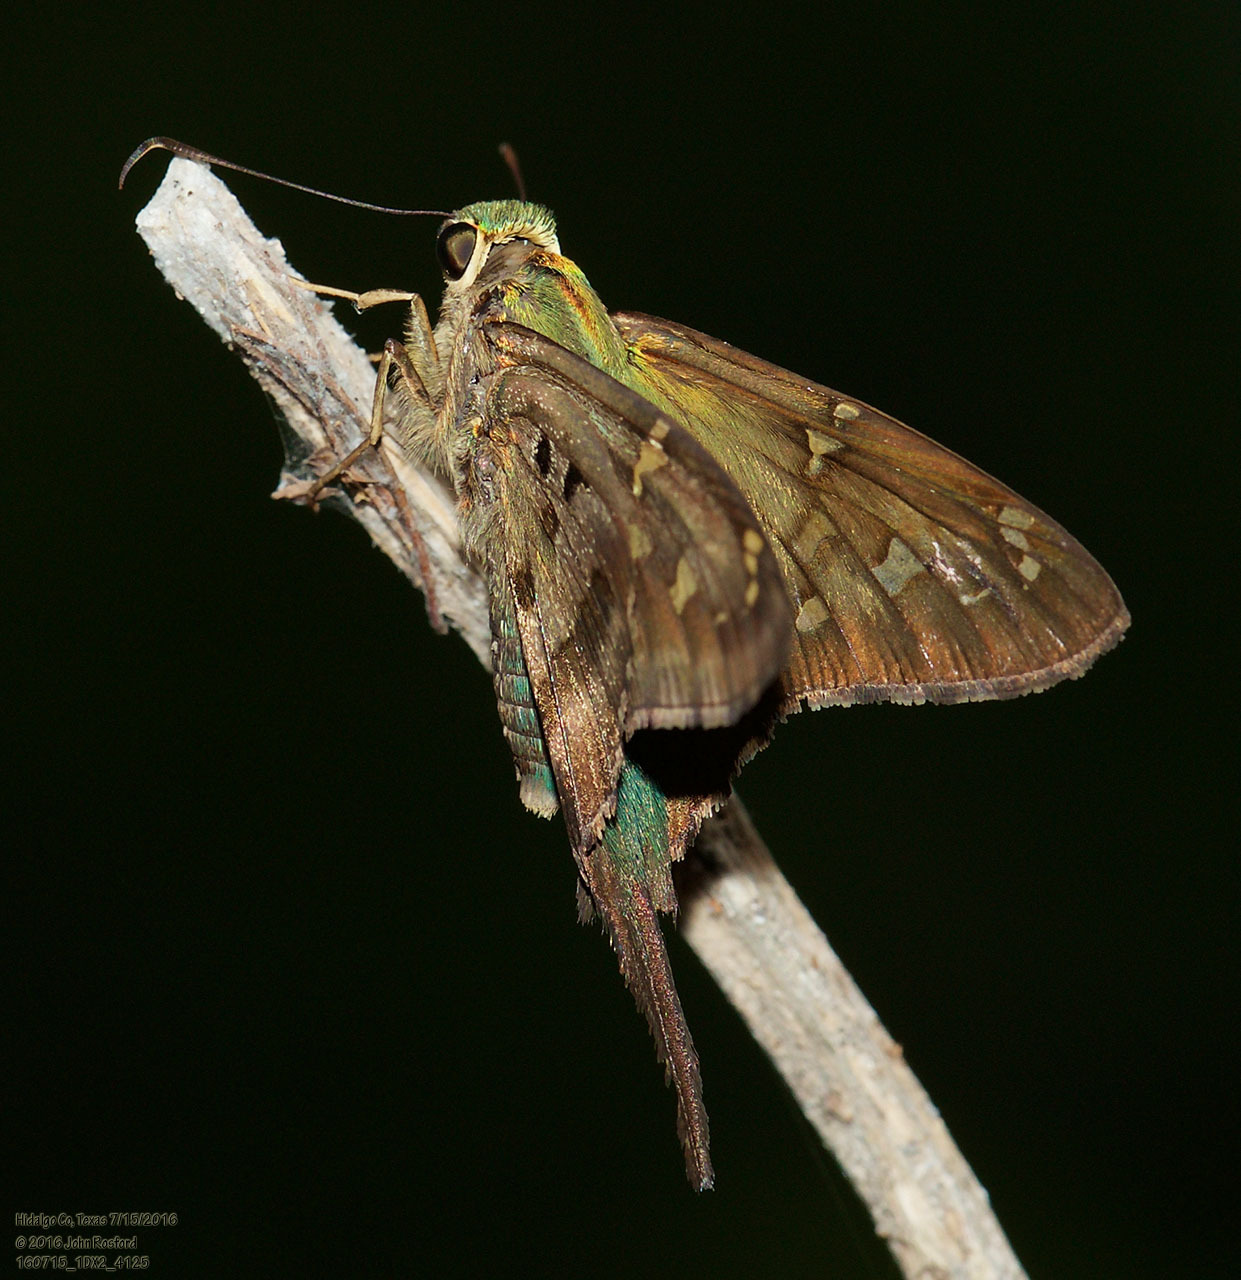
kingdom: Animalia
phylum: Arthropoda
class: Insecta
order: Lepidoptera
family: Hesperiidae
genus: Urbanus
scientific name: Urbanus proteus
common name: Long-tailed skipper
